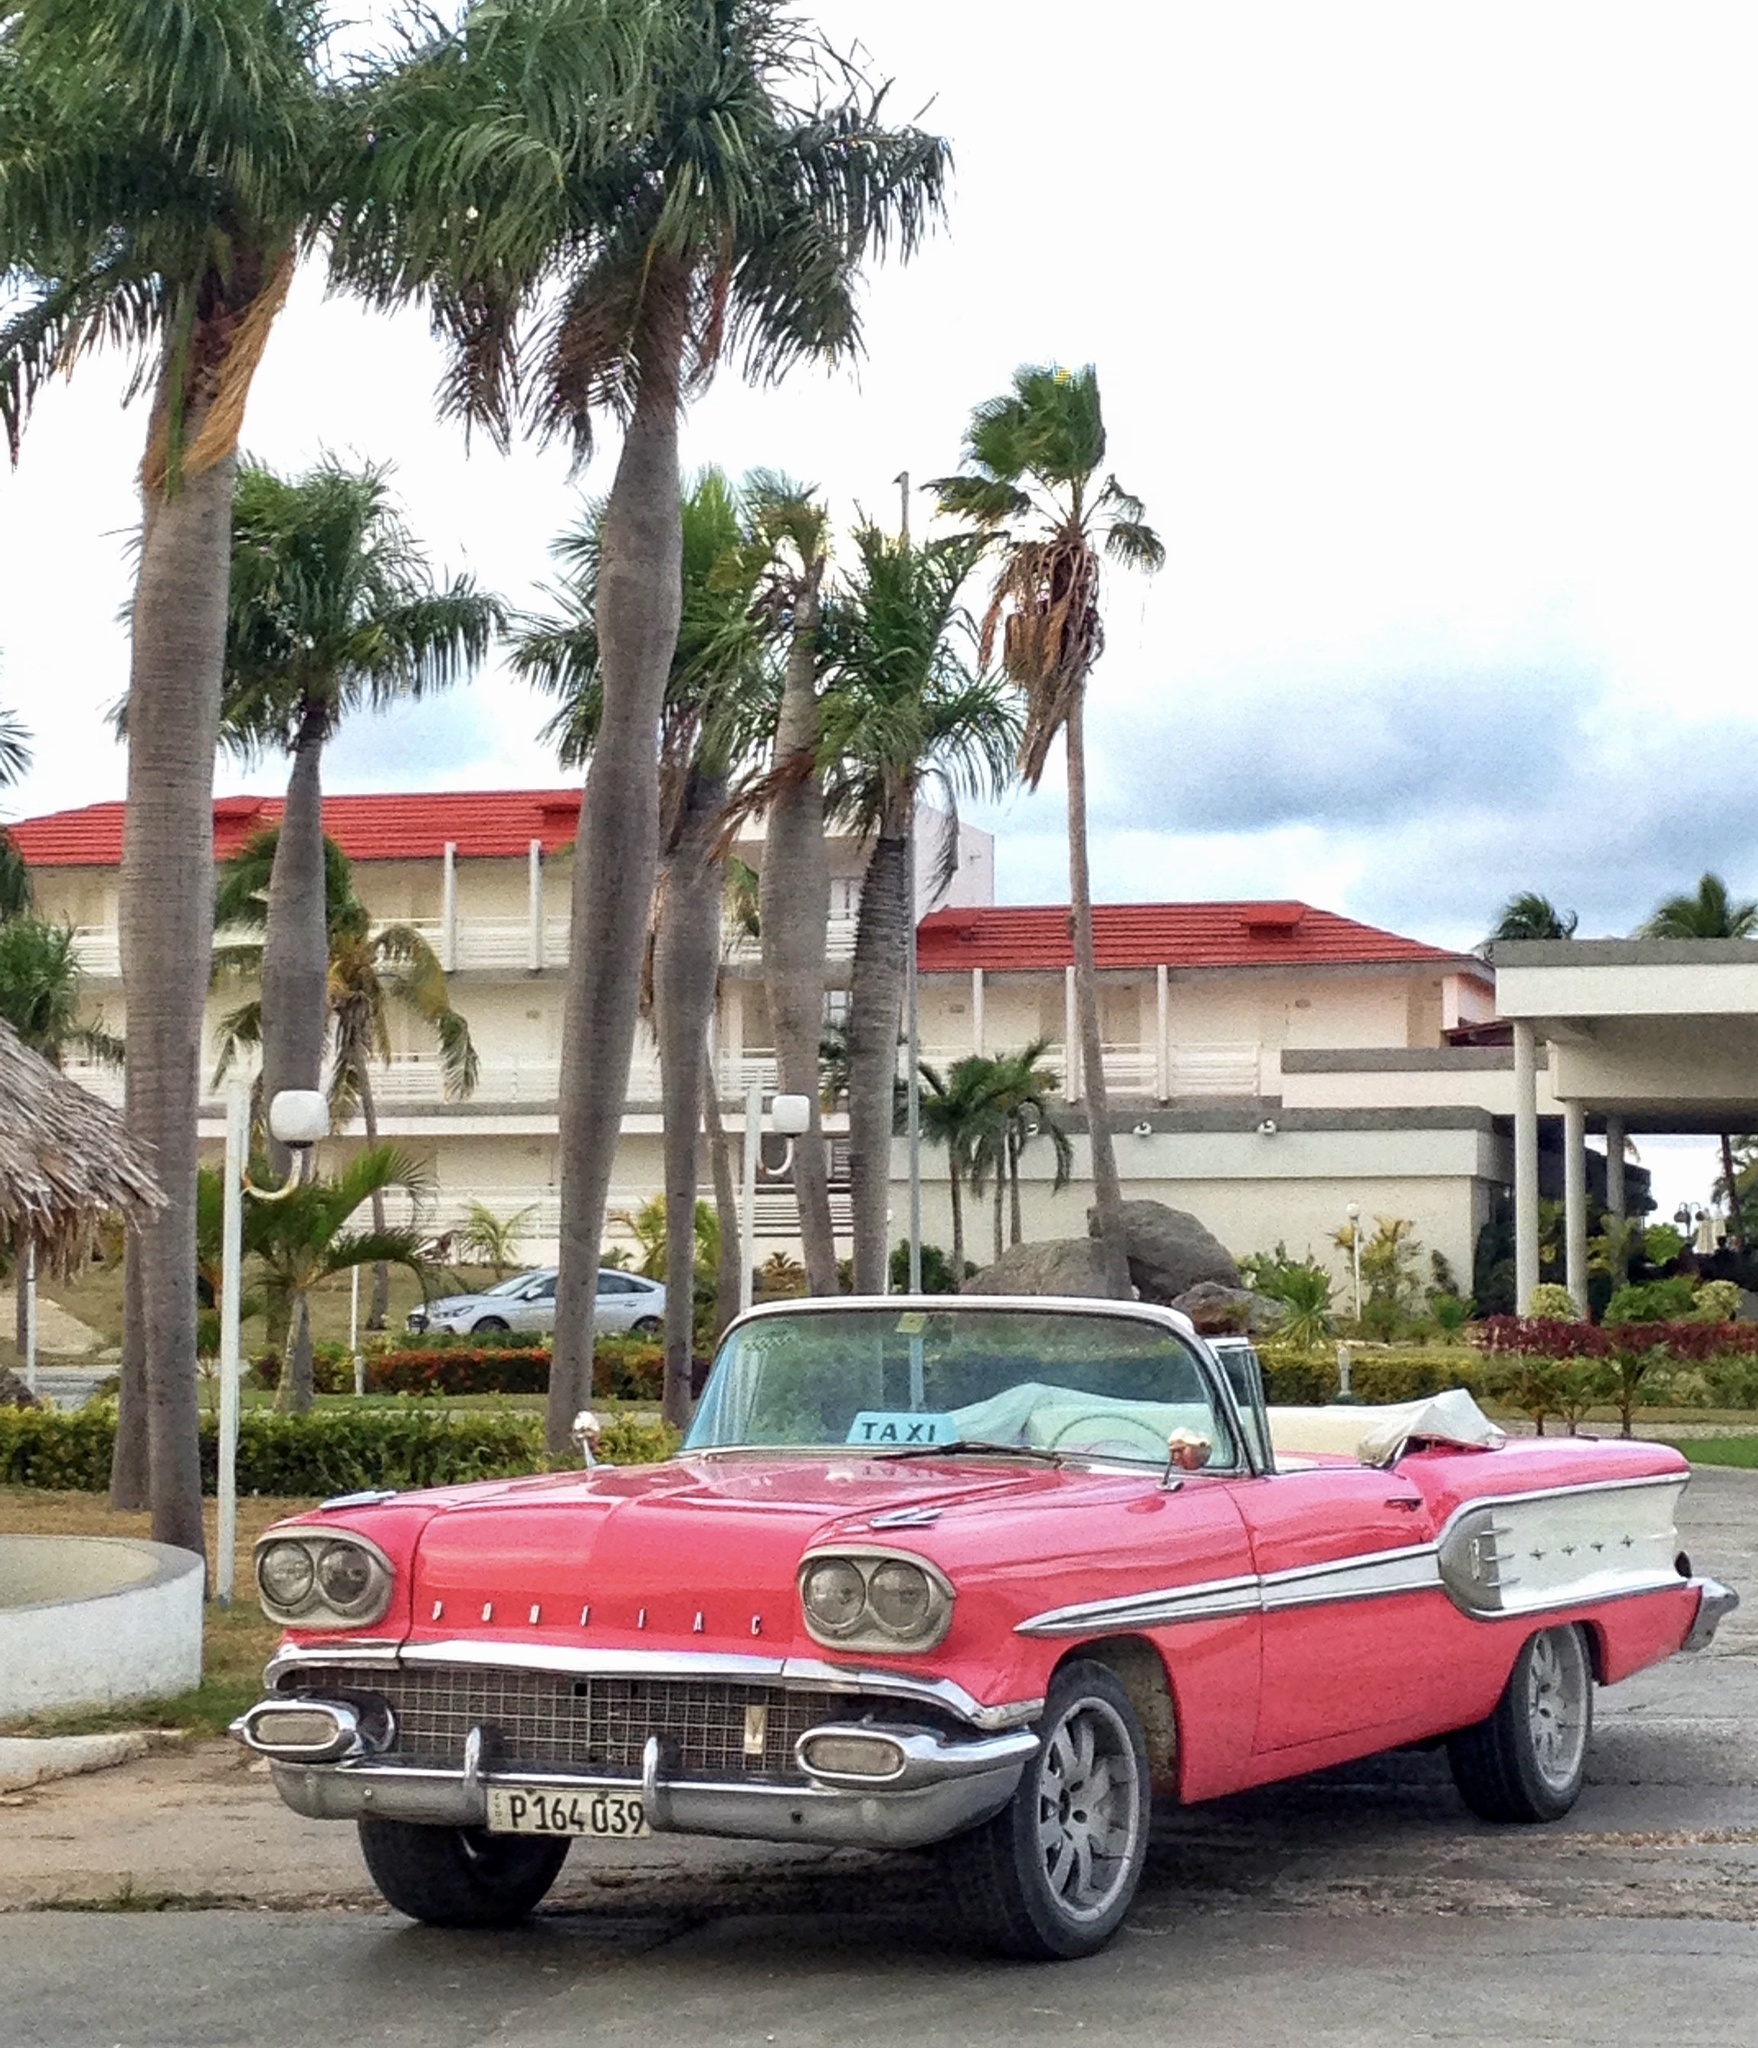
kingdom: Plantae
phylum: Tracheophyta
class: Liliopsida
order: Arecales
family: Arecaceae
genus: Acrocomia
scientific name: Acrocomia crispa
